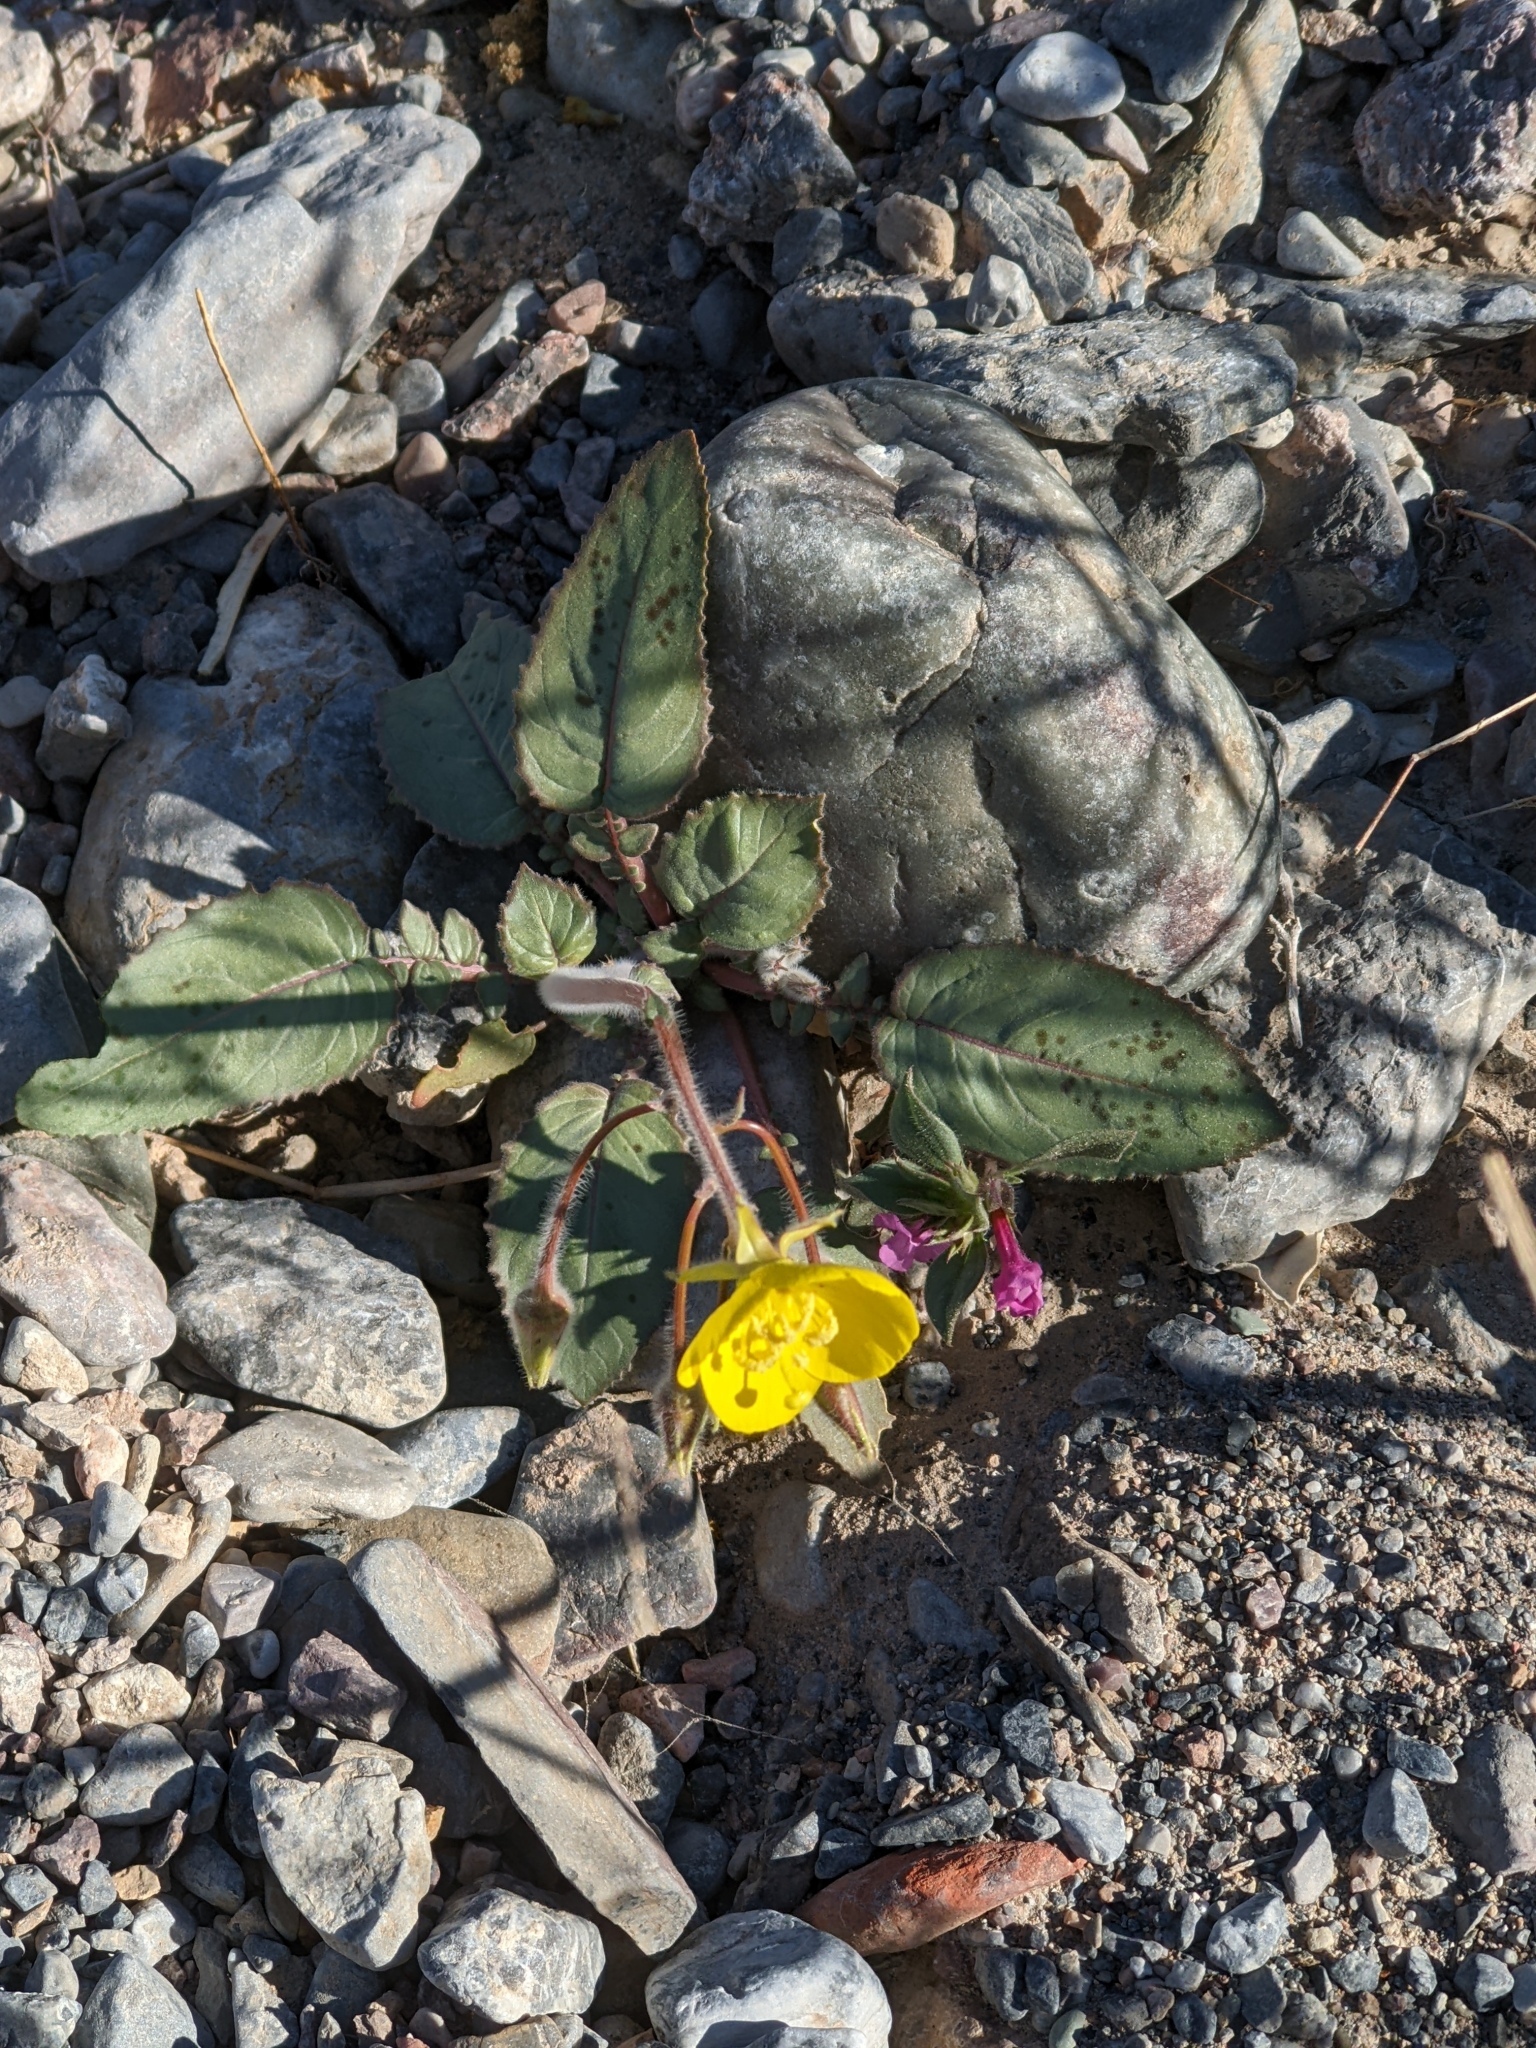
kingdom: Plantae
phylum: Tracheophyta
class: Magnoliopsida
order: Myrtales
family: Onagraceae
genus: Chylismia
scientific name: Chylismia brevipes
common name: Yellow cups
